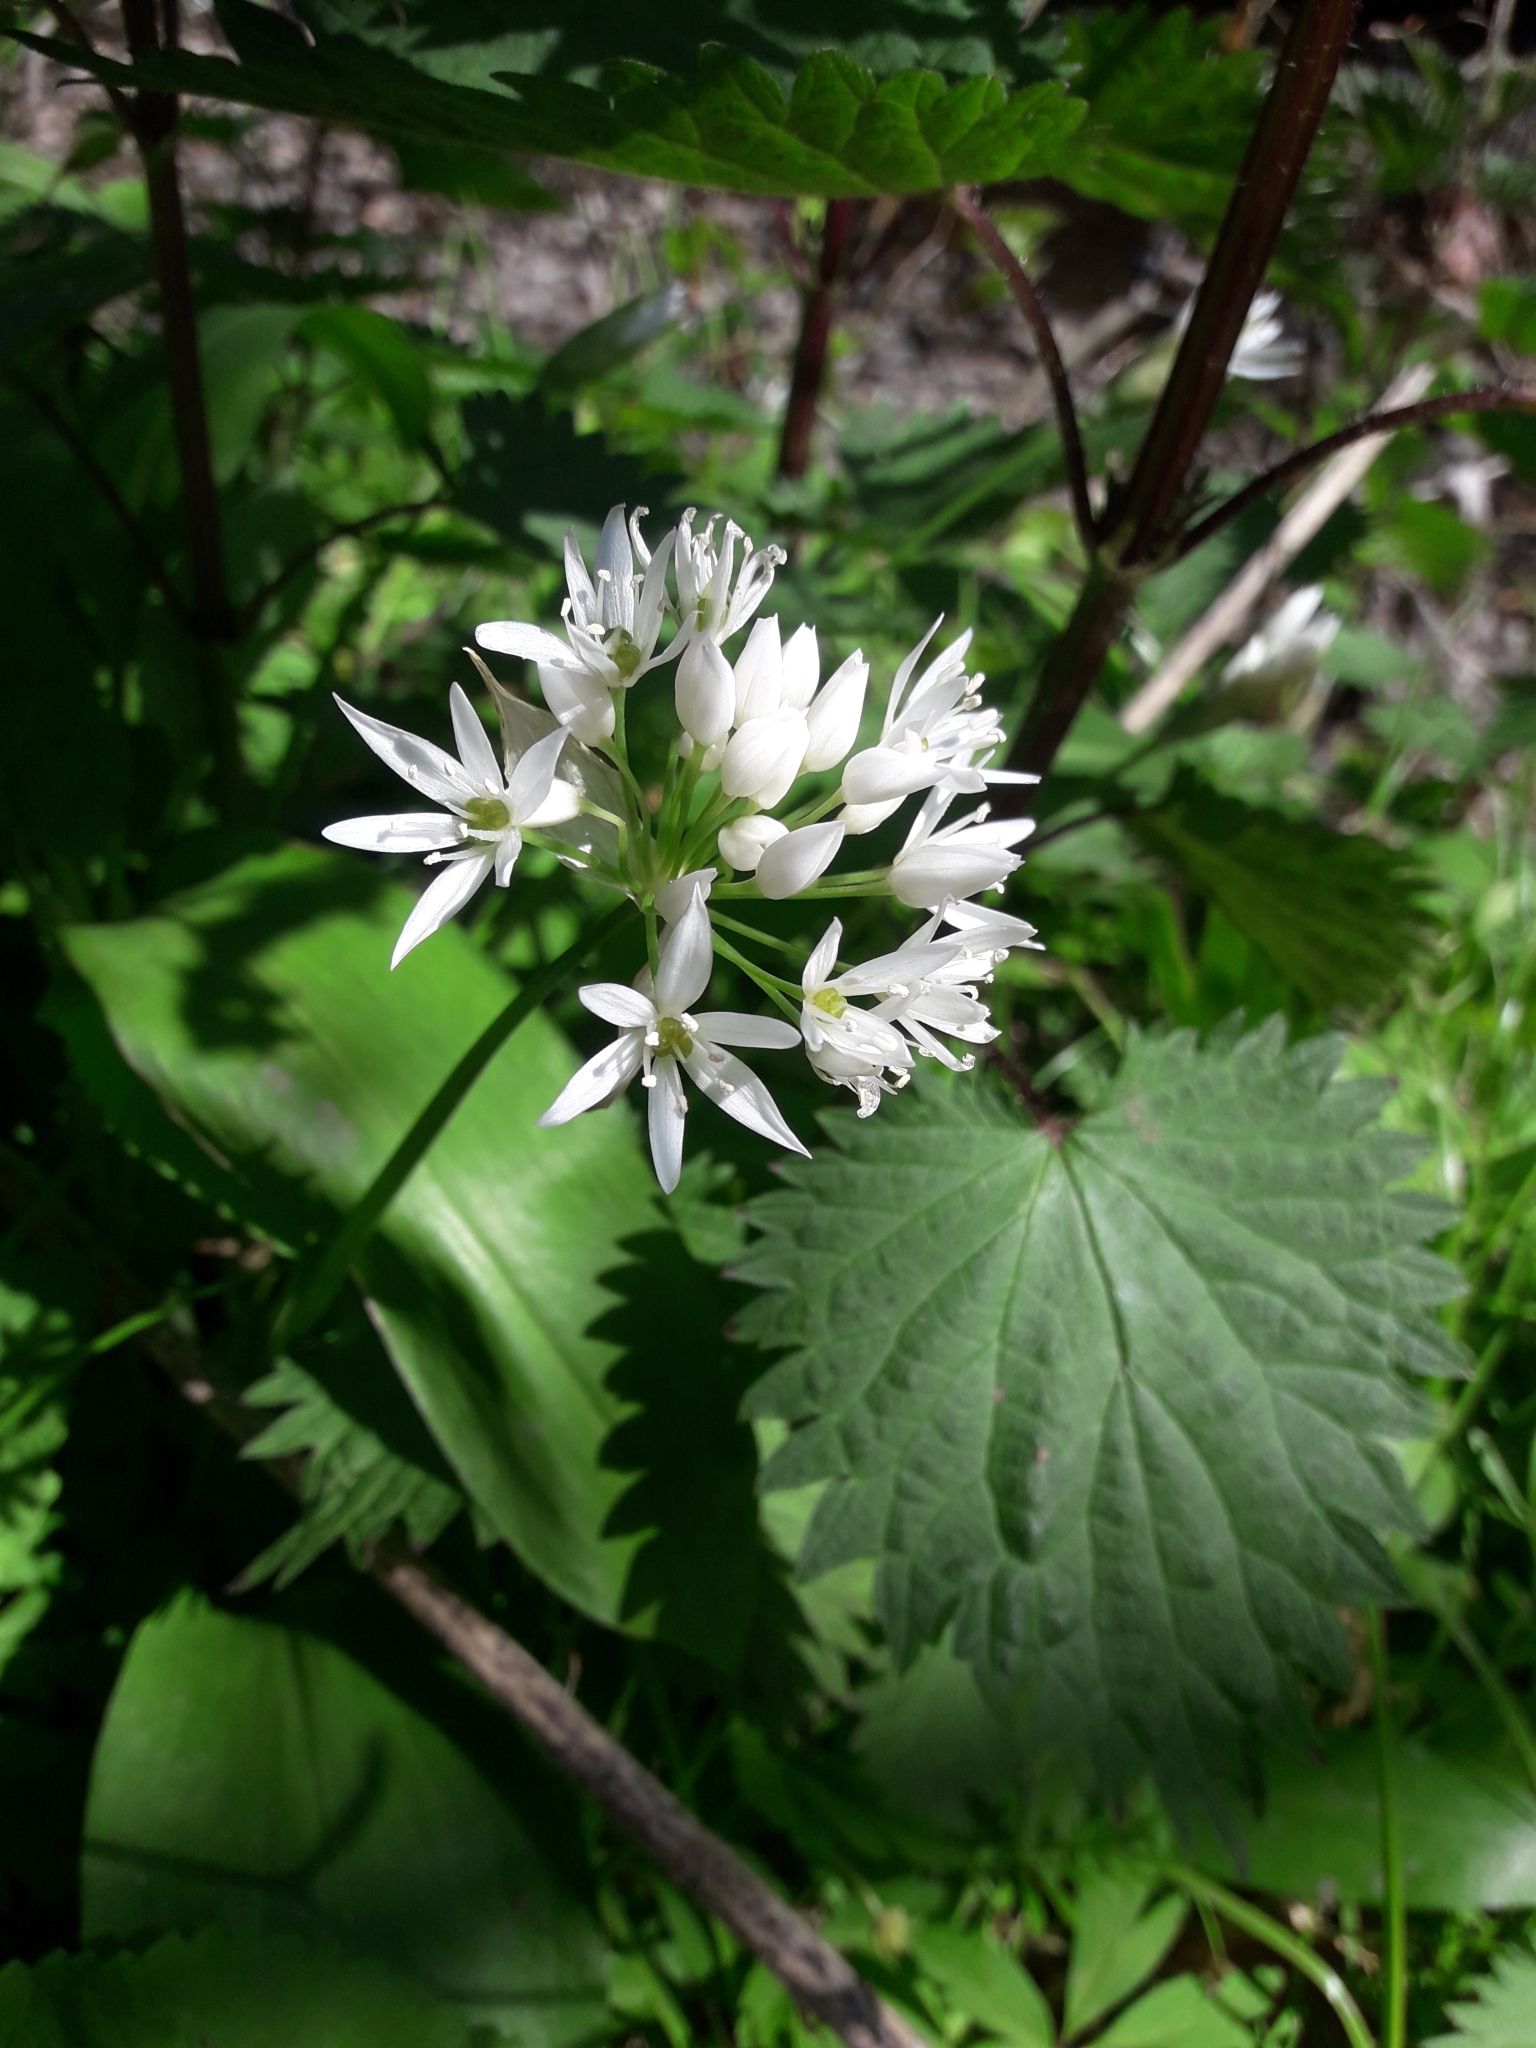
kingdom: Plantae
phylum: Tracheophyta
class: Liliopsida
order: Asparagales
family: Amaryllidaceae
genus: Allium
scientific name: Allium ursinum
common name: Ramsons
